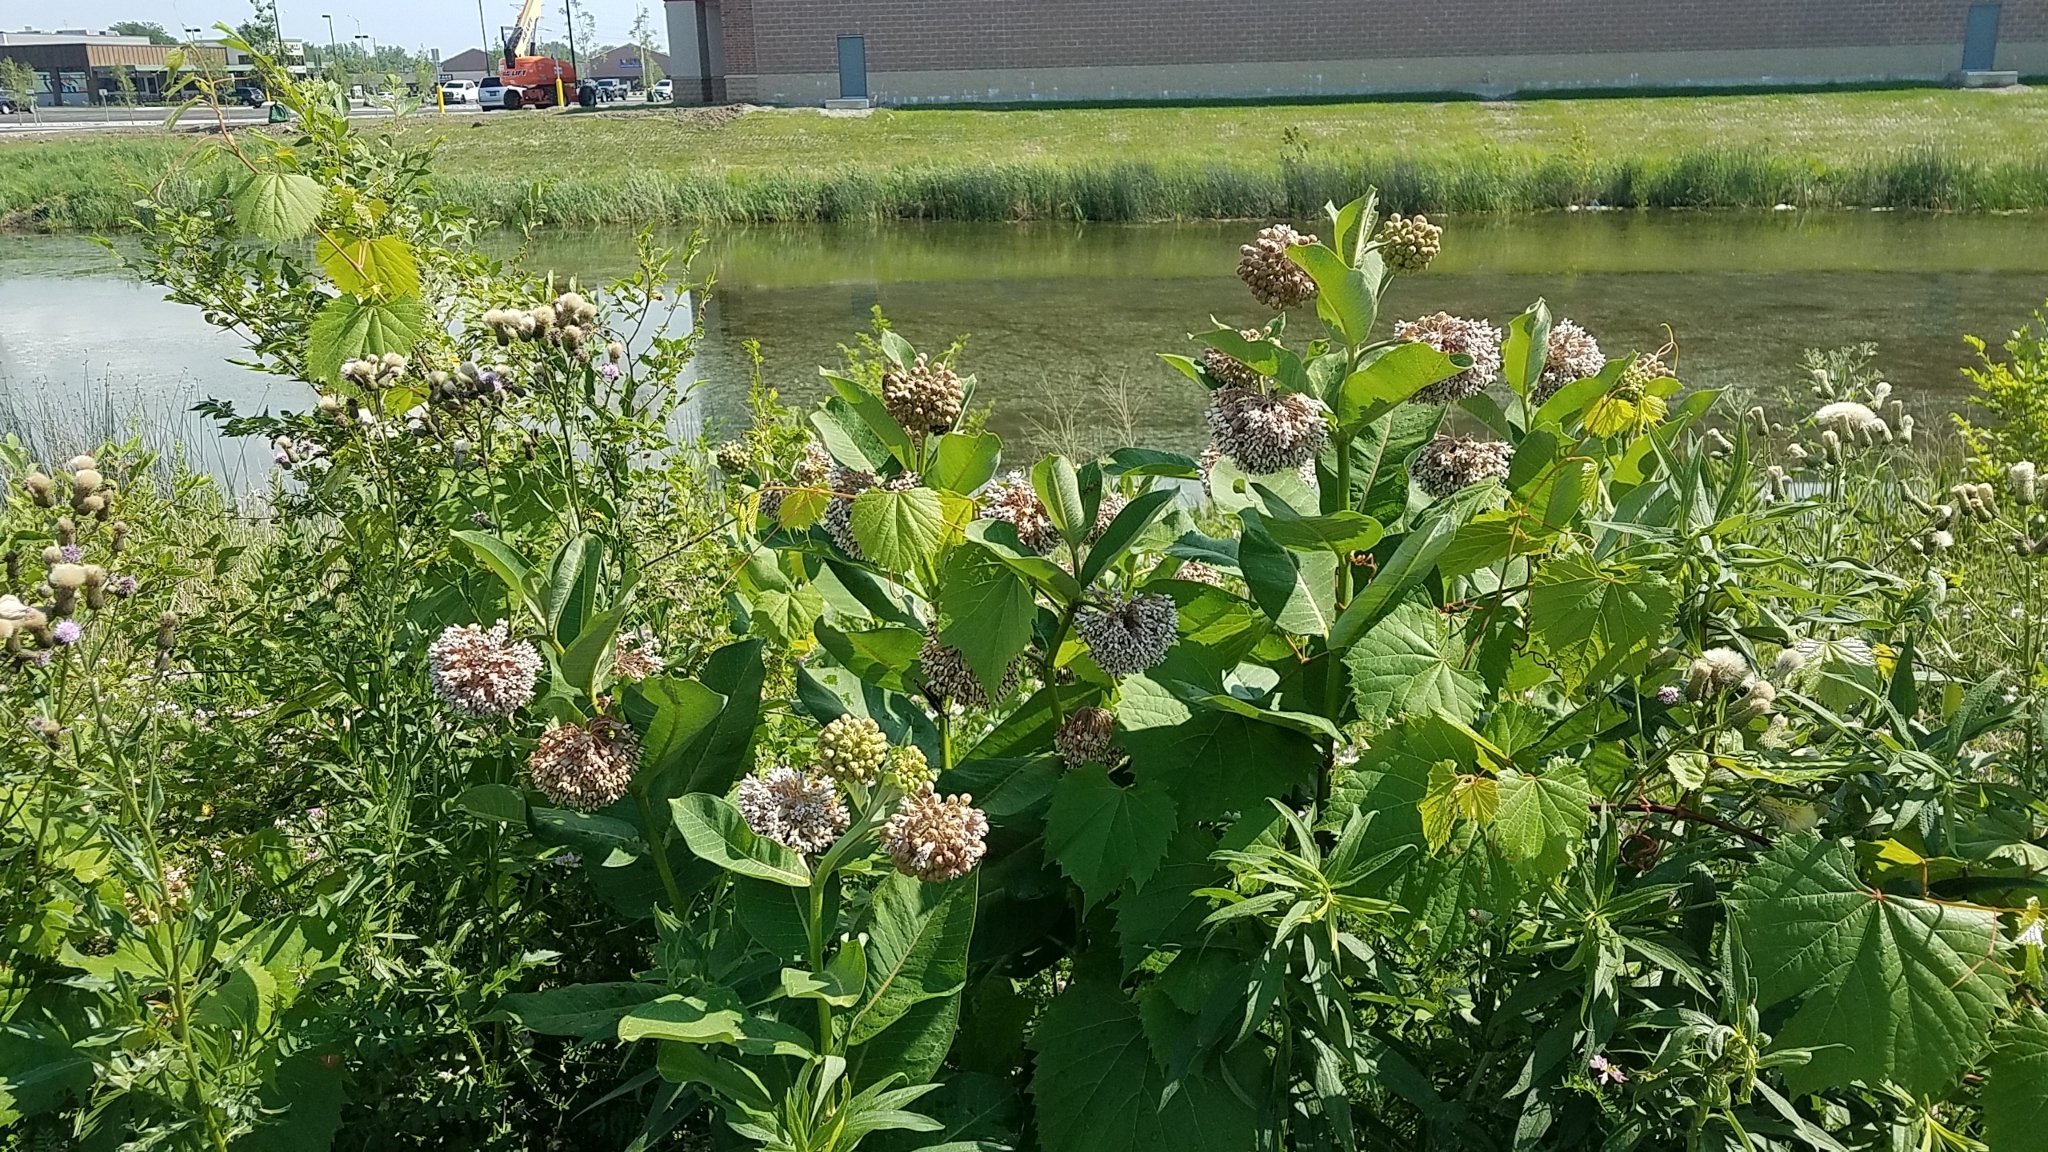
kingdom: Plantae
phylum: Tracheophyta
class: Magnoliopsida
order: Gentianales
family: Apocynaceae
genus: Asclepias
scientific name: Asclepias syriaca
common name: Common milkweed
